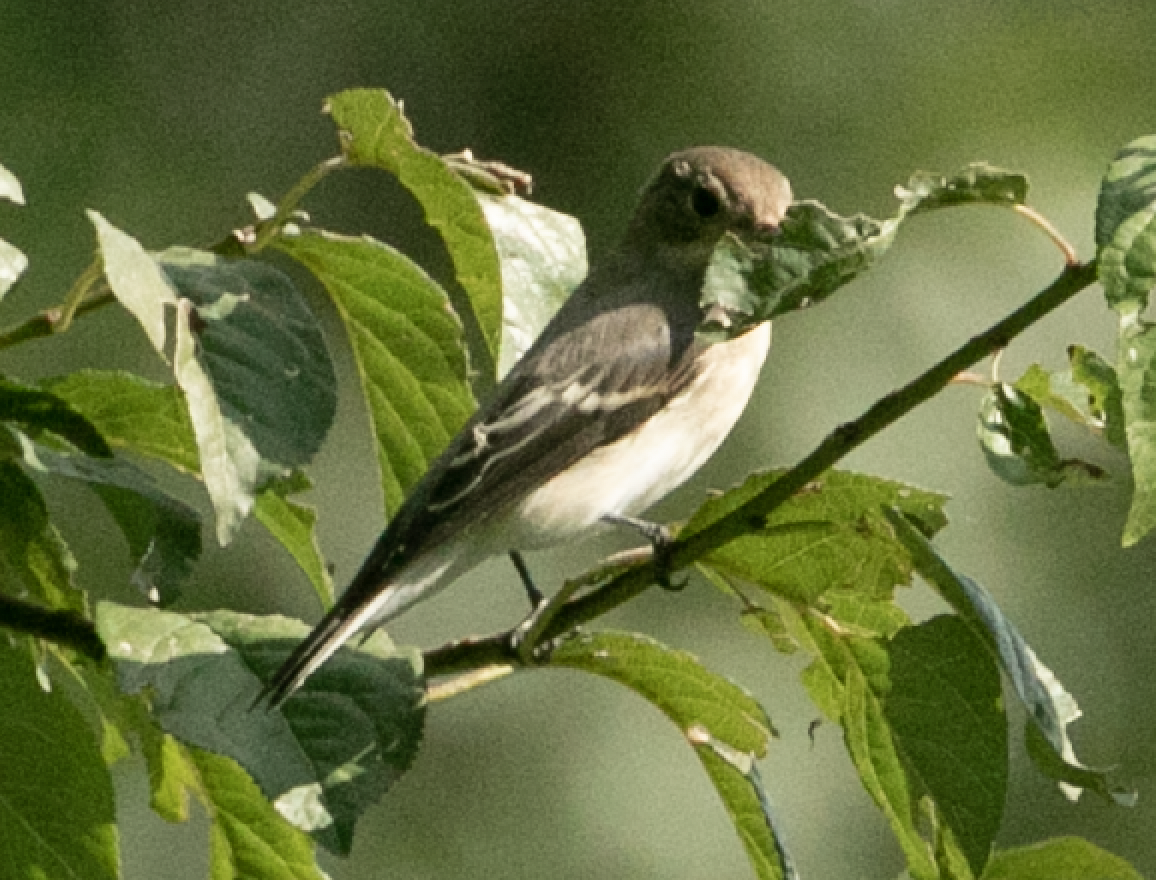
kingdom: Animalia
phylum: Chordata
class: Aves
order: Passeriformes
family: Muscicapidae
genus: Ficedula
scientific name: Ficedula hypoleuca
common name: European pied flycatcher
